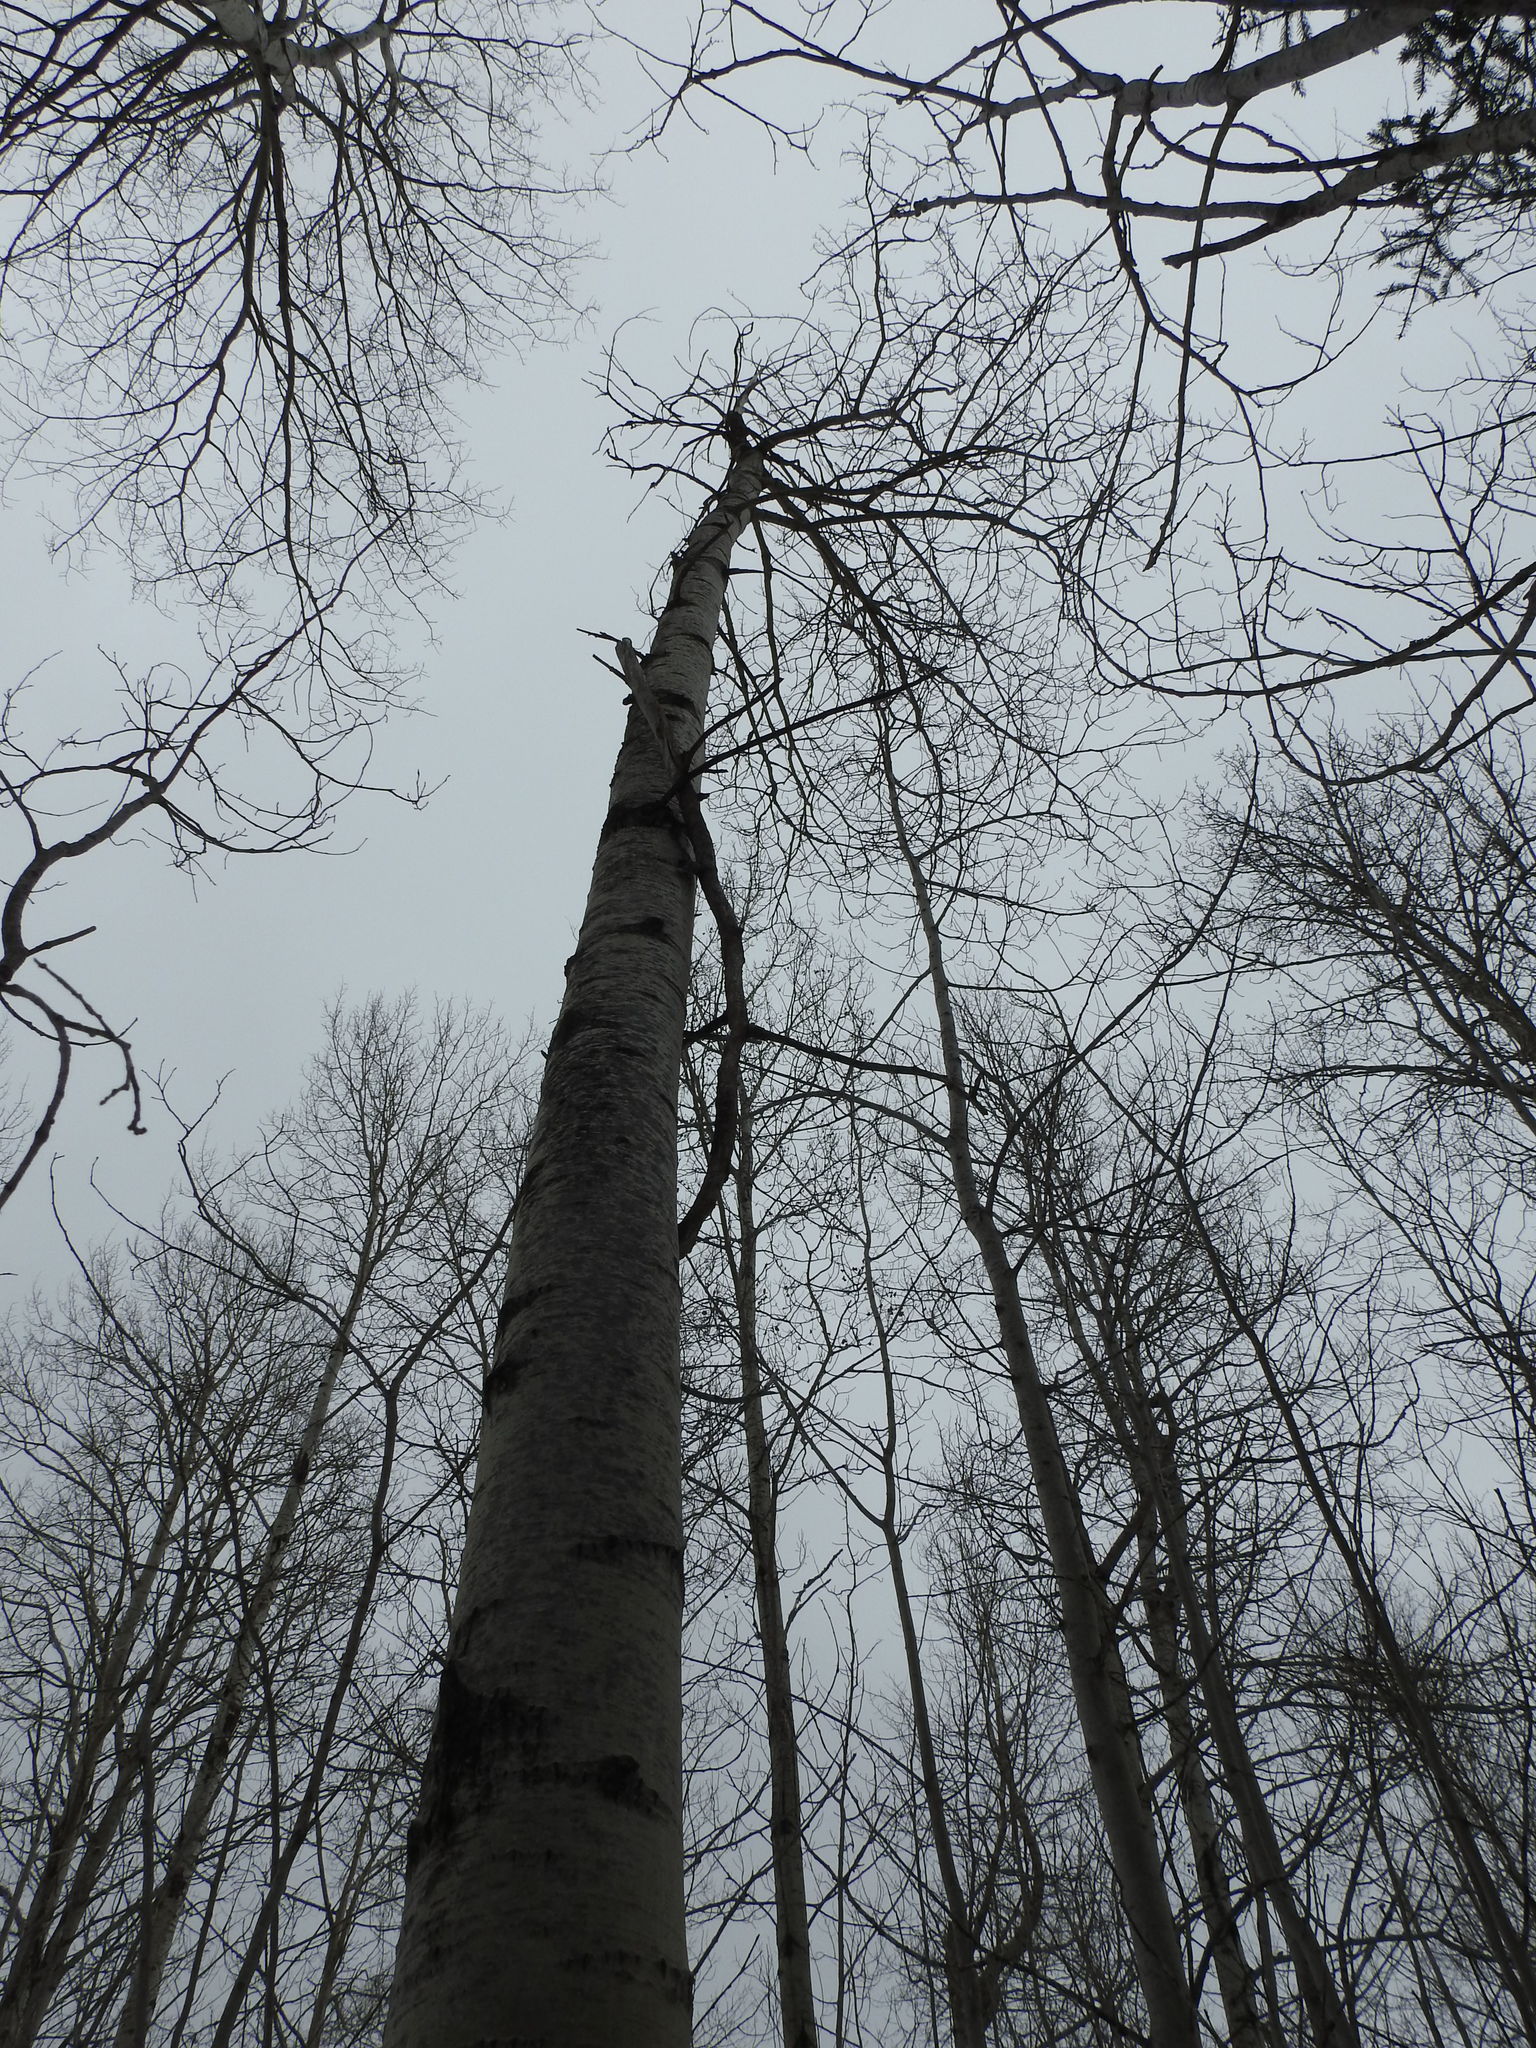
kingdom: Plantae
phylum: Tracheophyta
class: Magnoliopsida
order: Malpighiales
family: Salicaceae
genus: Populus
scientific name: Populus tremuloides
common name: Quaking aspen
